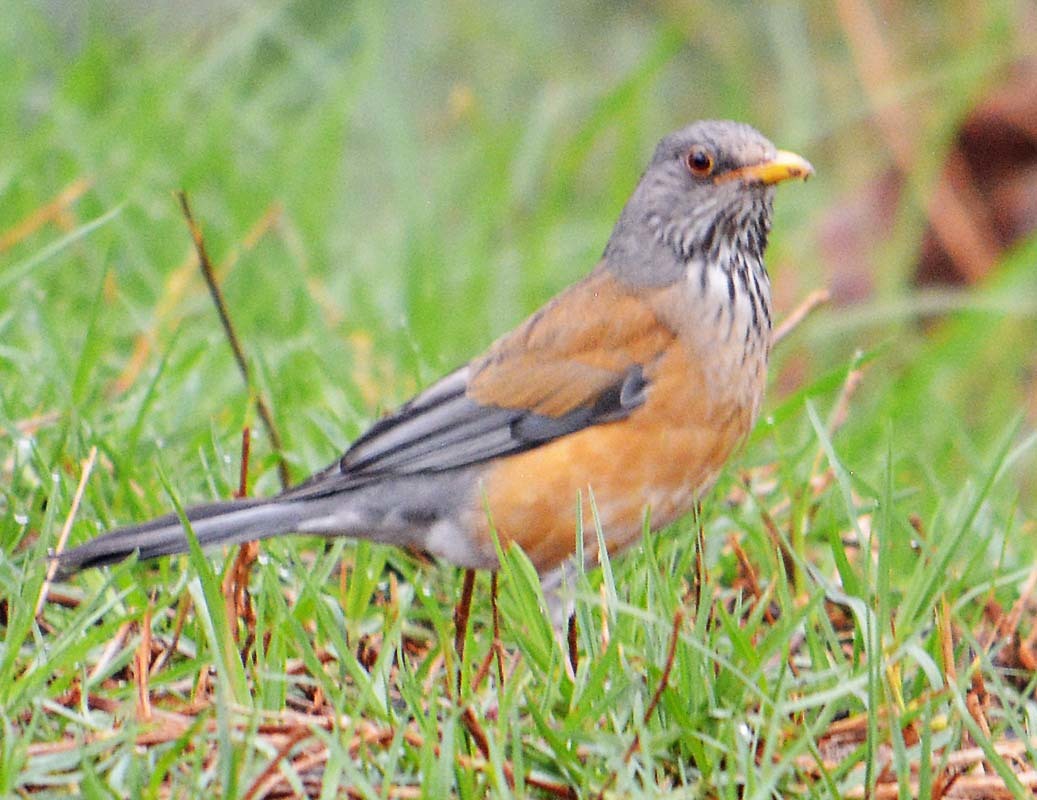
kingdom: Animalia
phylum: Chordata
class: Aves
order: Passeriformes
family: Turdidae
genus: Turdus
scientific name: Turdus rufopalliatus
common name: Rufous-backed robin
